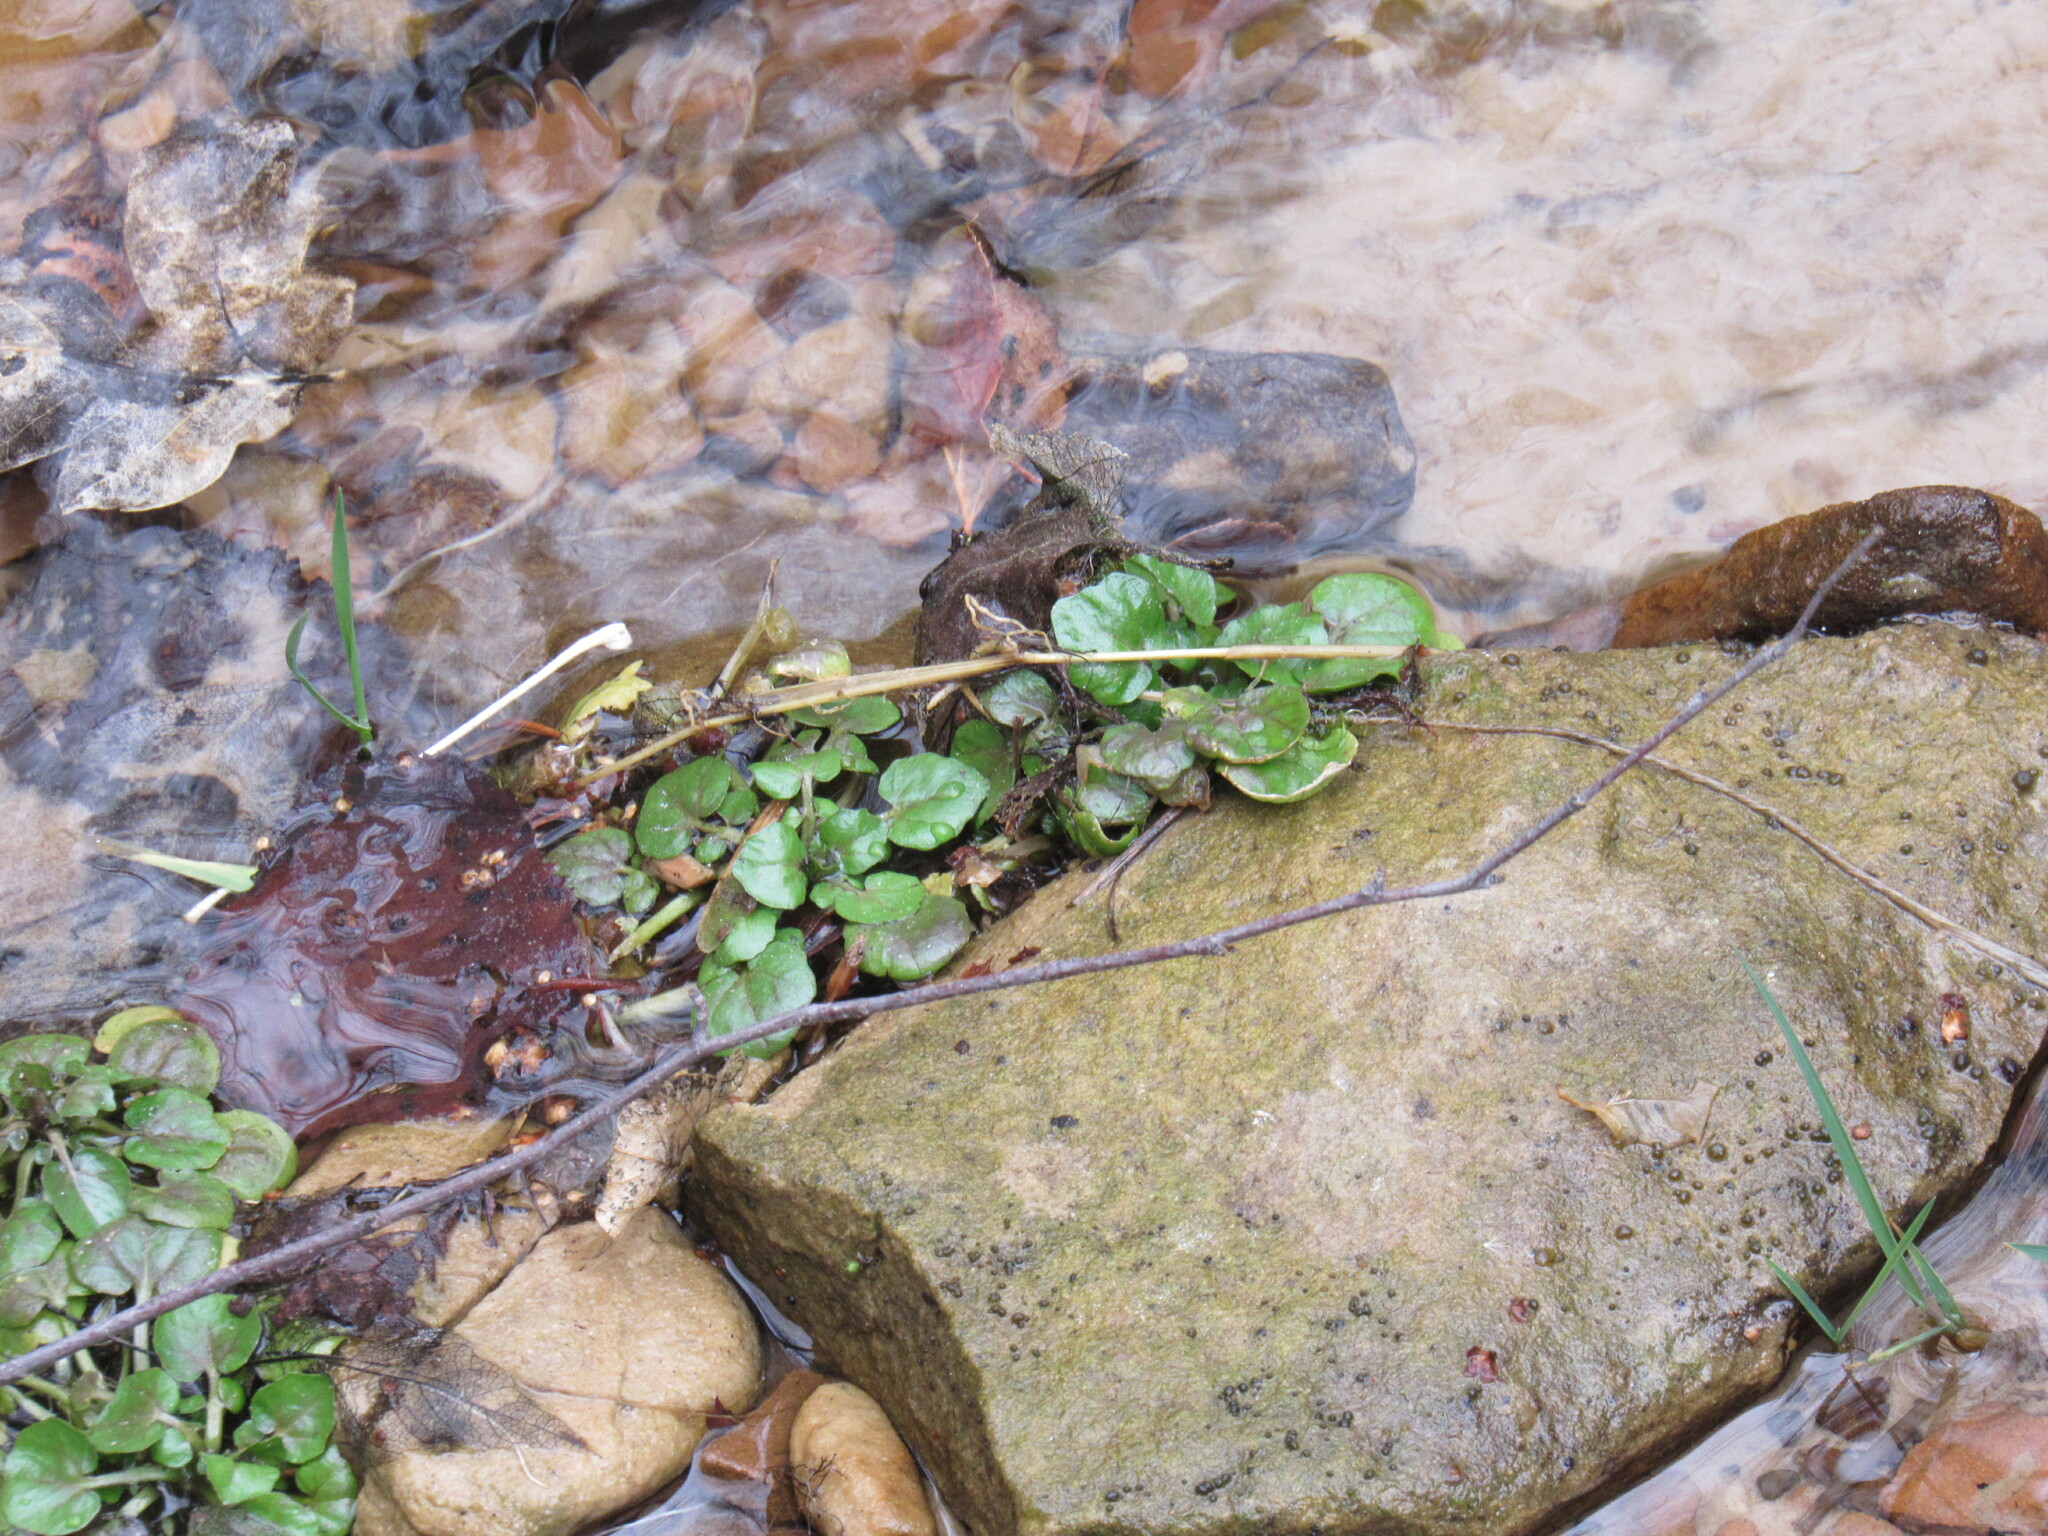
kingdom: Plantae
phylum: Tracheophyta
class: Magnoliopsida
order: Brassicales
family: Brassicaceae
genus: Nasturtium
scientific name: Nasturtium officinale
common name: Watercress
